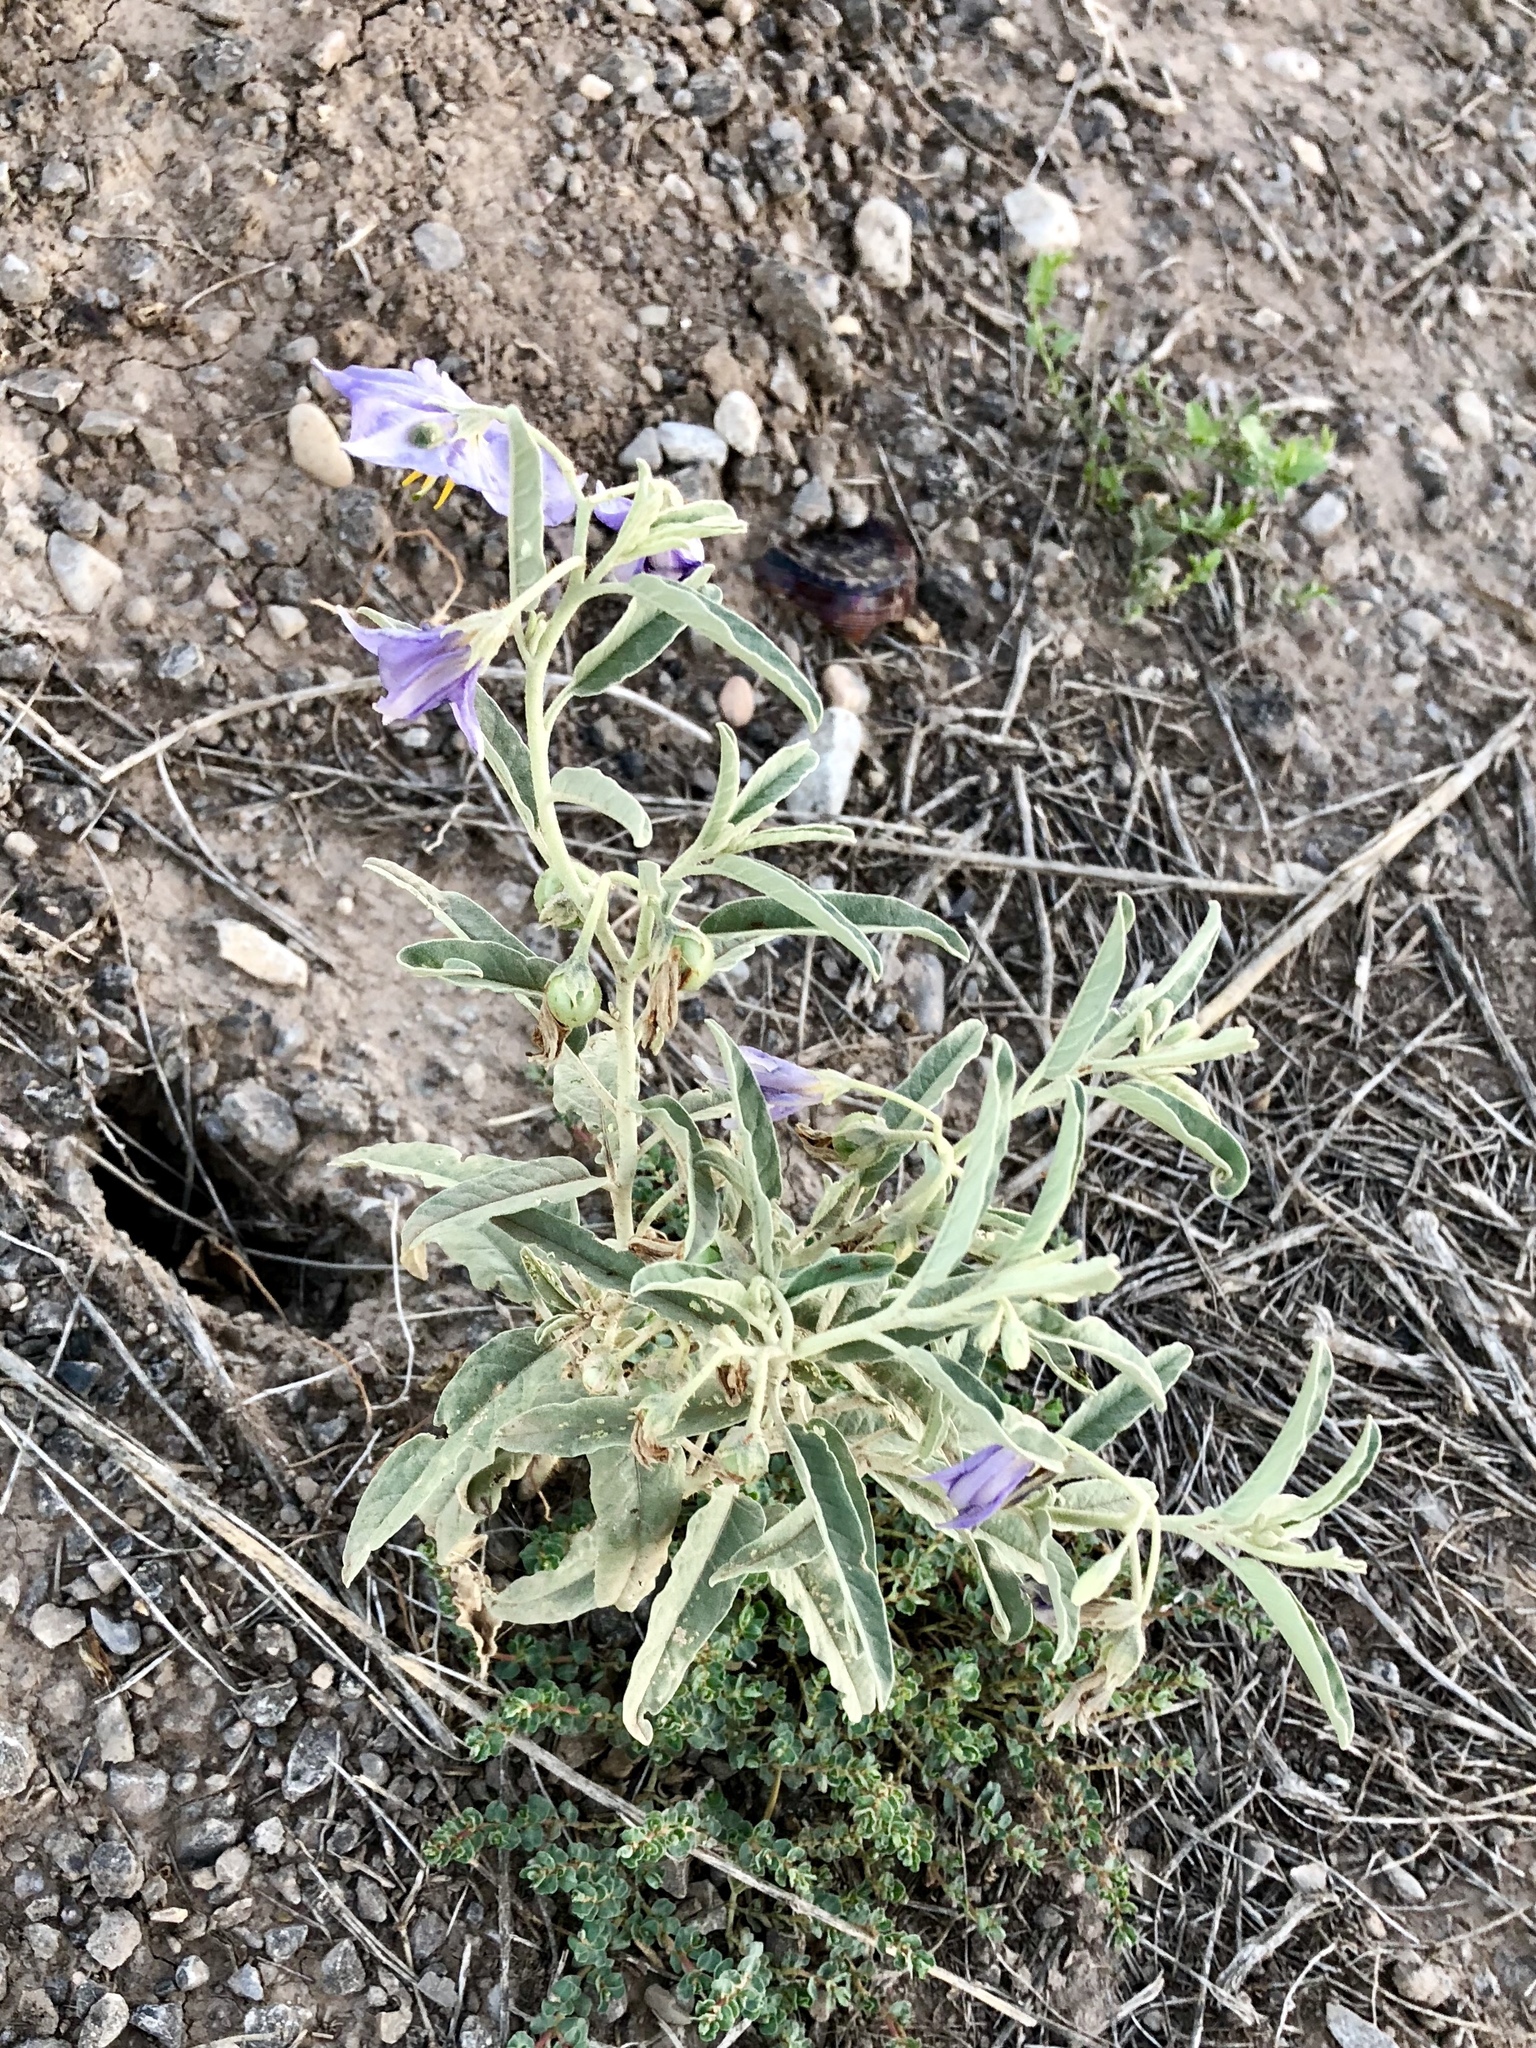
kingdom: Plantae
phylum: Tracheophyta
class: Magnoliopsida
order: Solanales
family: Solanaceae
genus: Solanum
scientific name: Solanum elaeagnifolium
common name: Silverleaf nightshade
